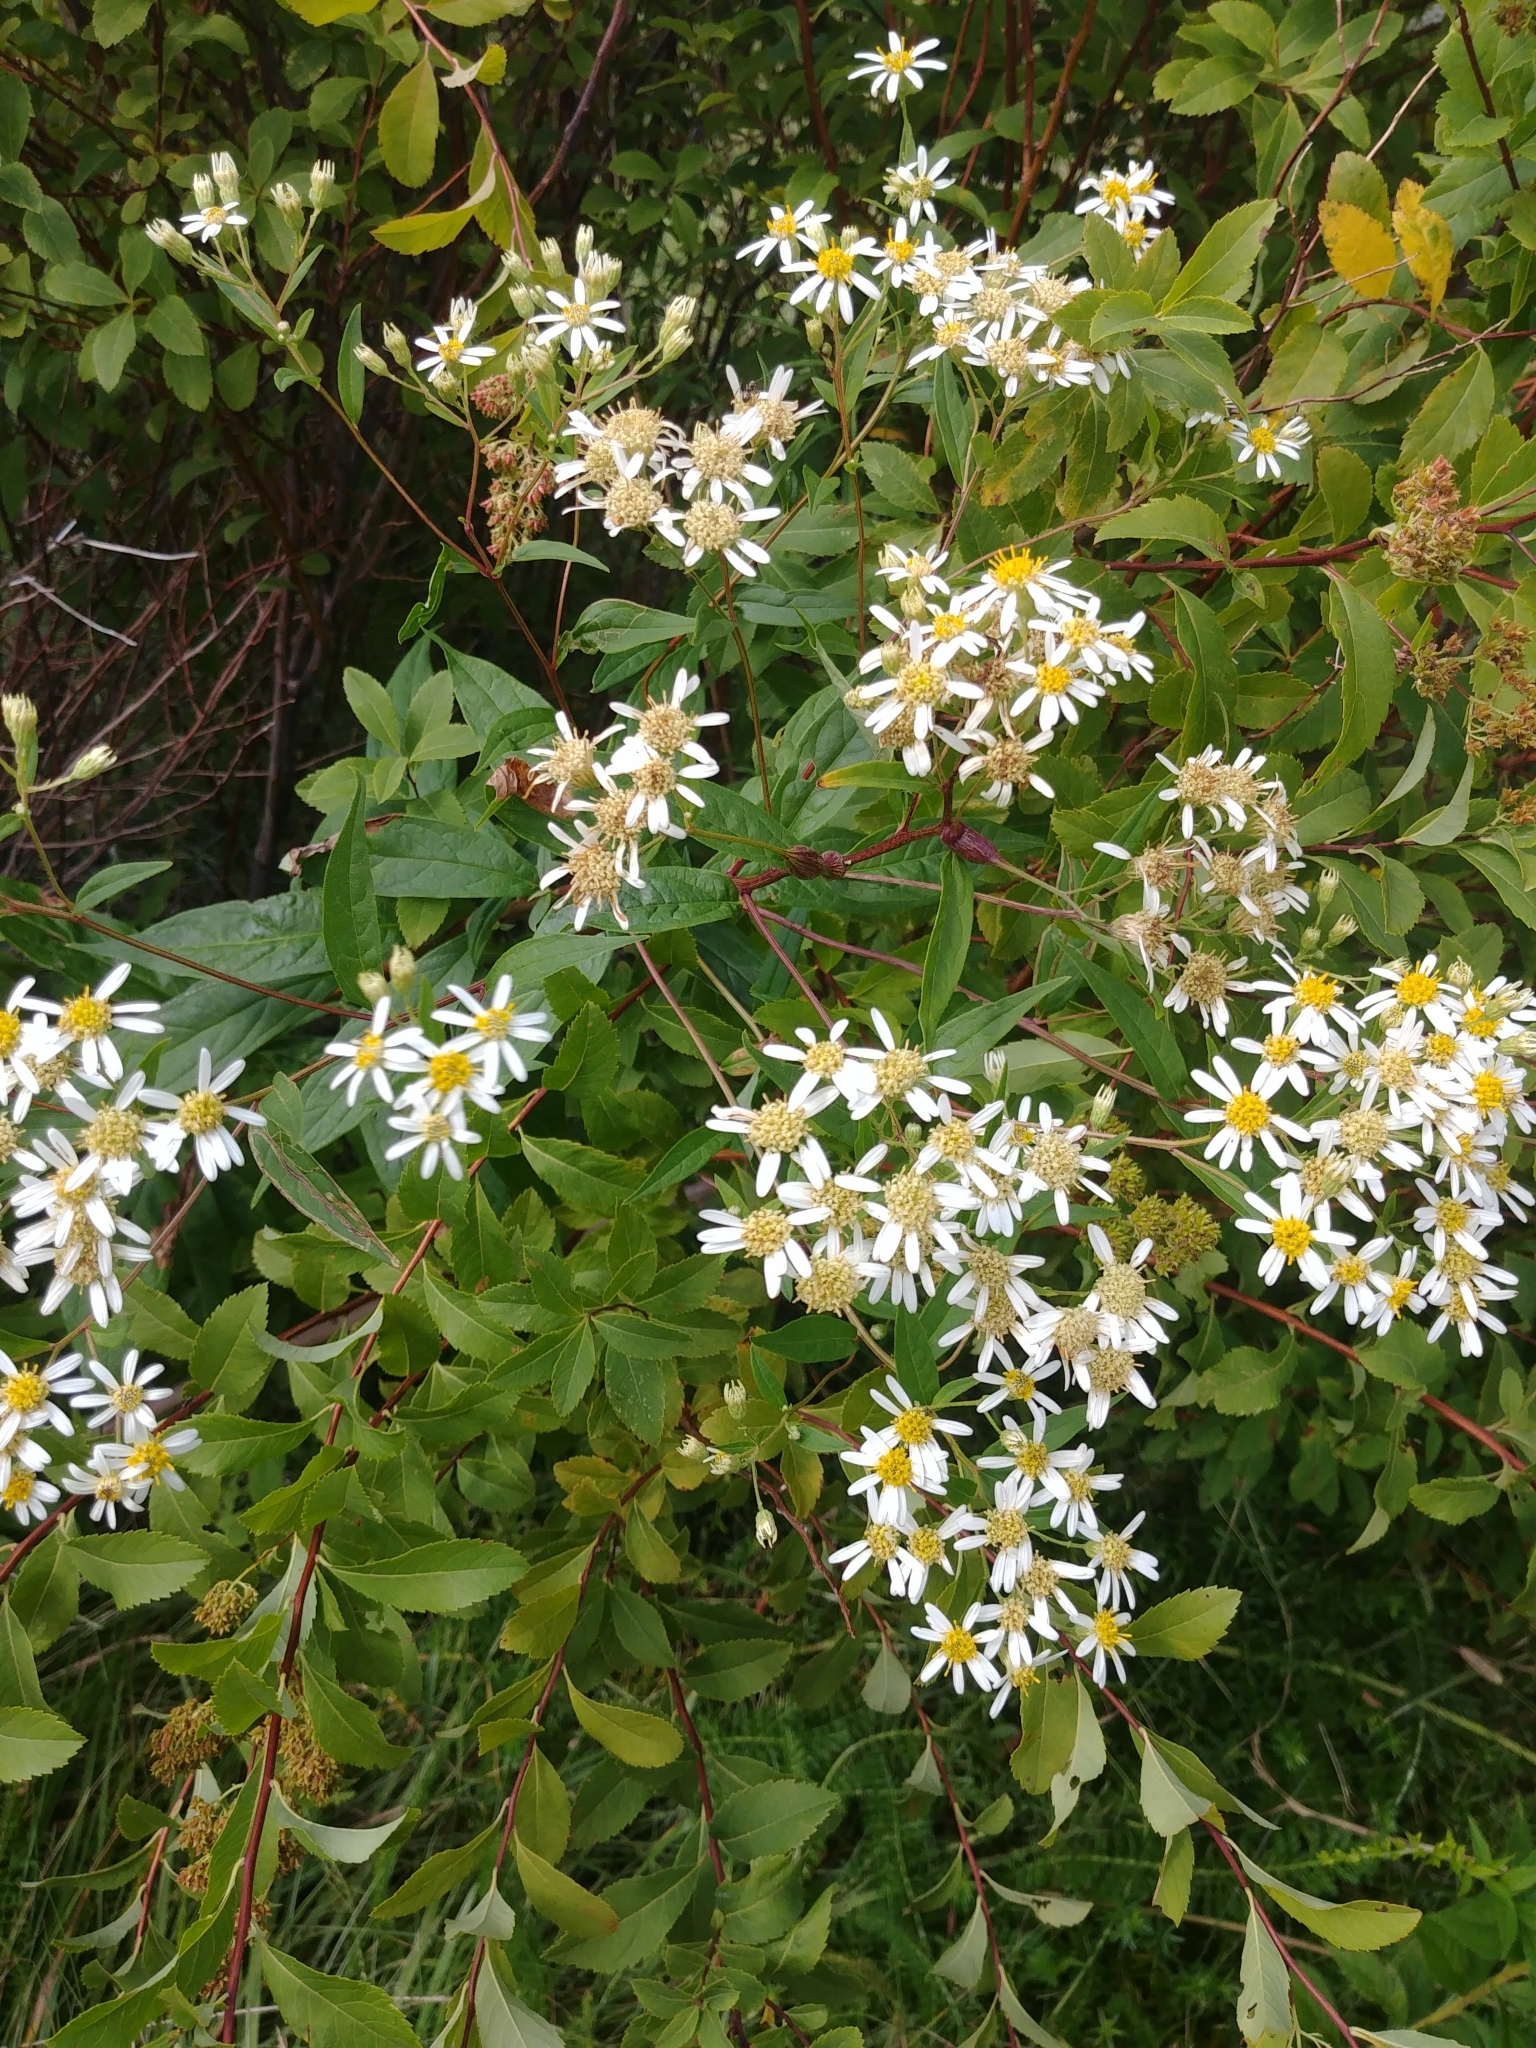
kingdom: Plantae
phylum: Tracheophyta
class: Magnoliopsida
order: Asterales
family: Asteraceae
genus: Doellingeria
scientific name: Doellingeria umbellata
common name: Flat-top white aster
